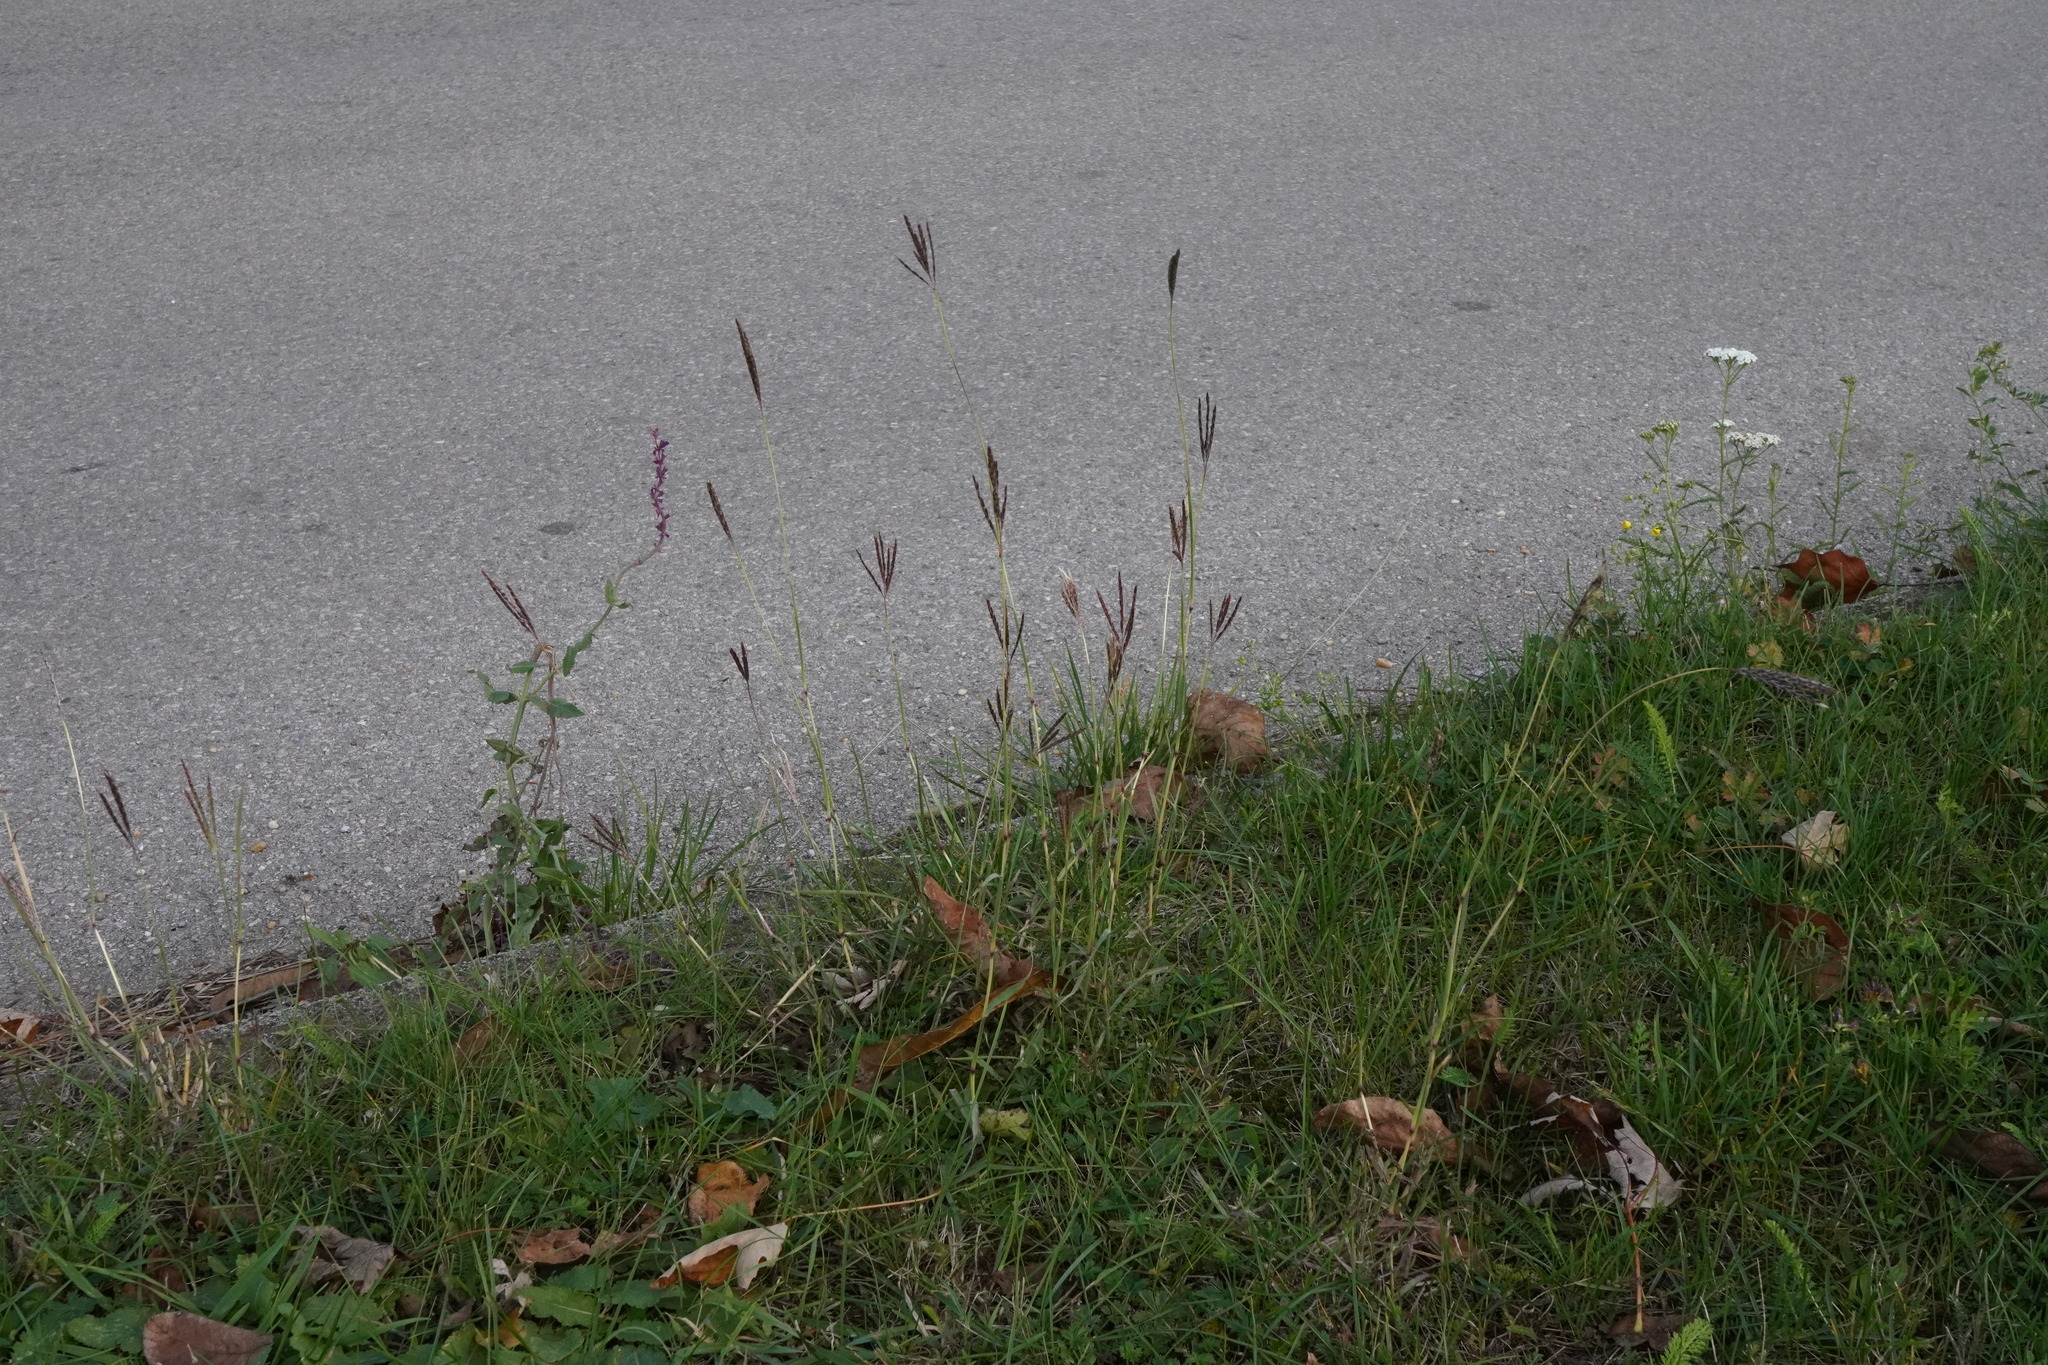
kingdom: Plantae
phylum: Tracheophyta
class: Liliopsida
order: Poales
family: Poaceae
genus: Bothriochloa
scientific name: Bothriochloa ischaemum
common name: Yellow bluestem
